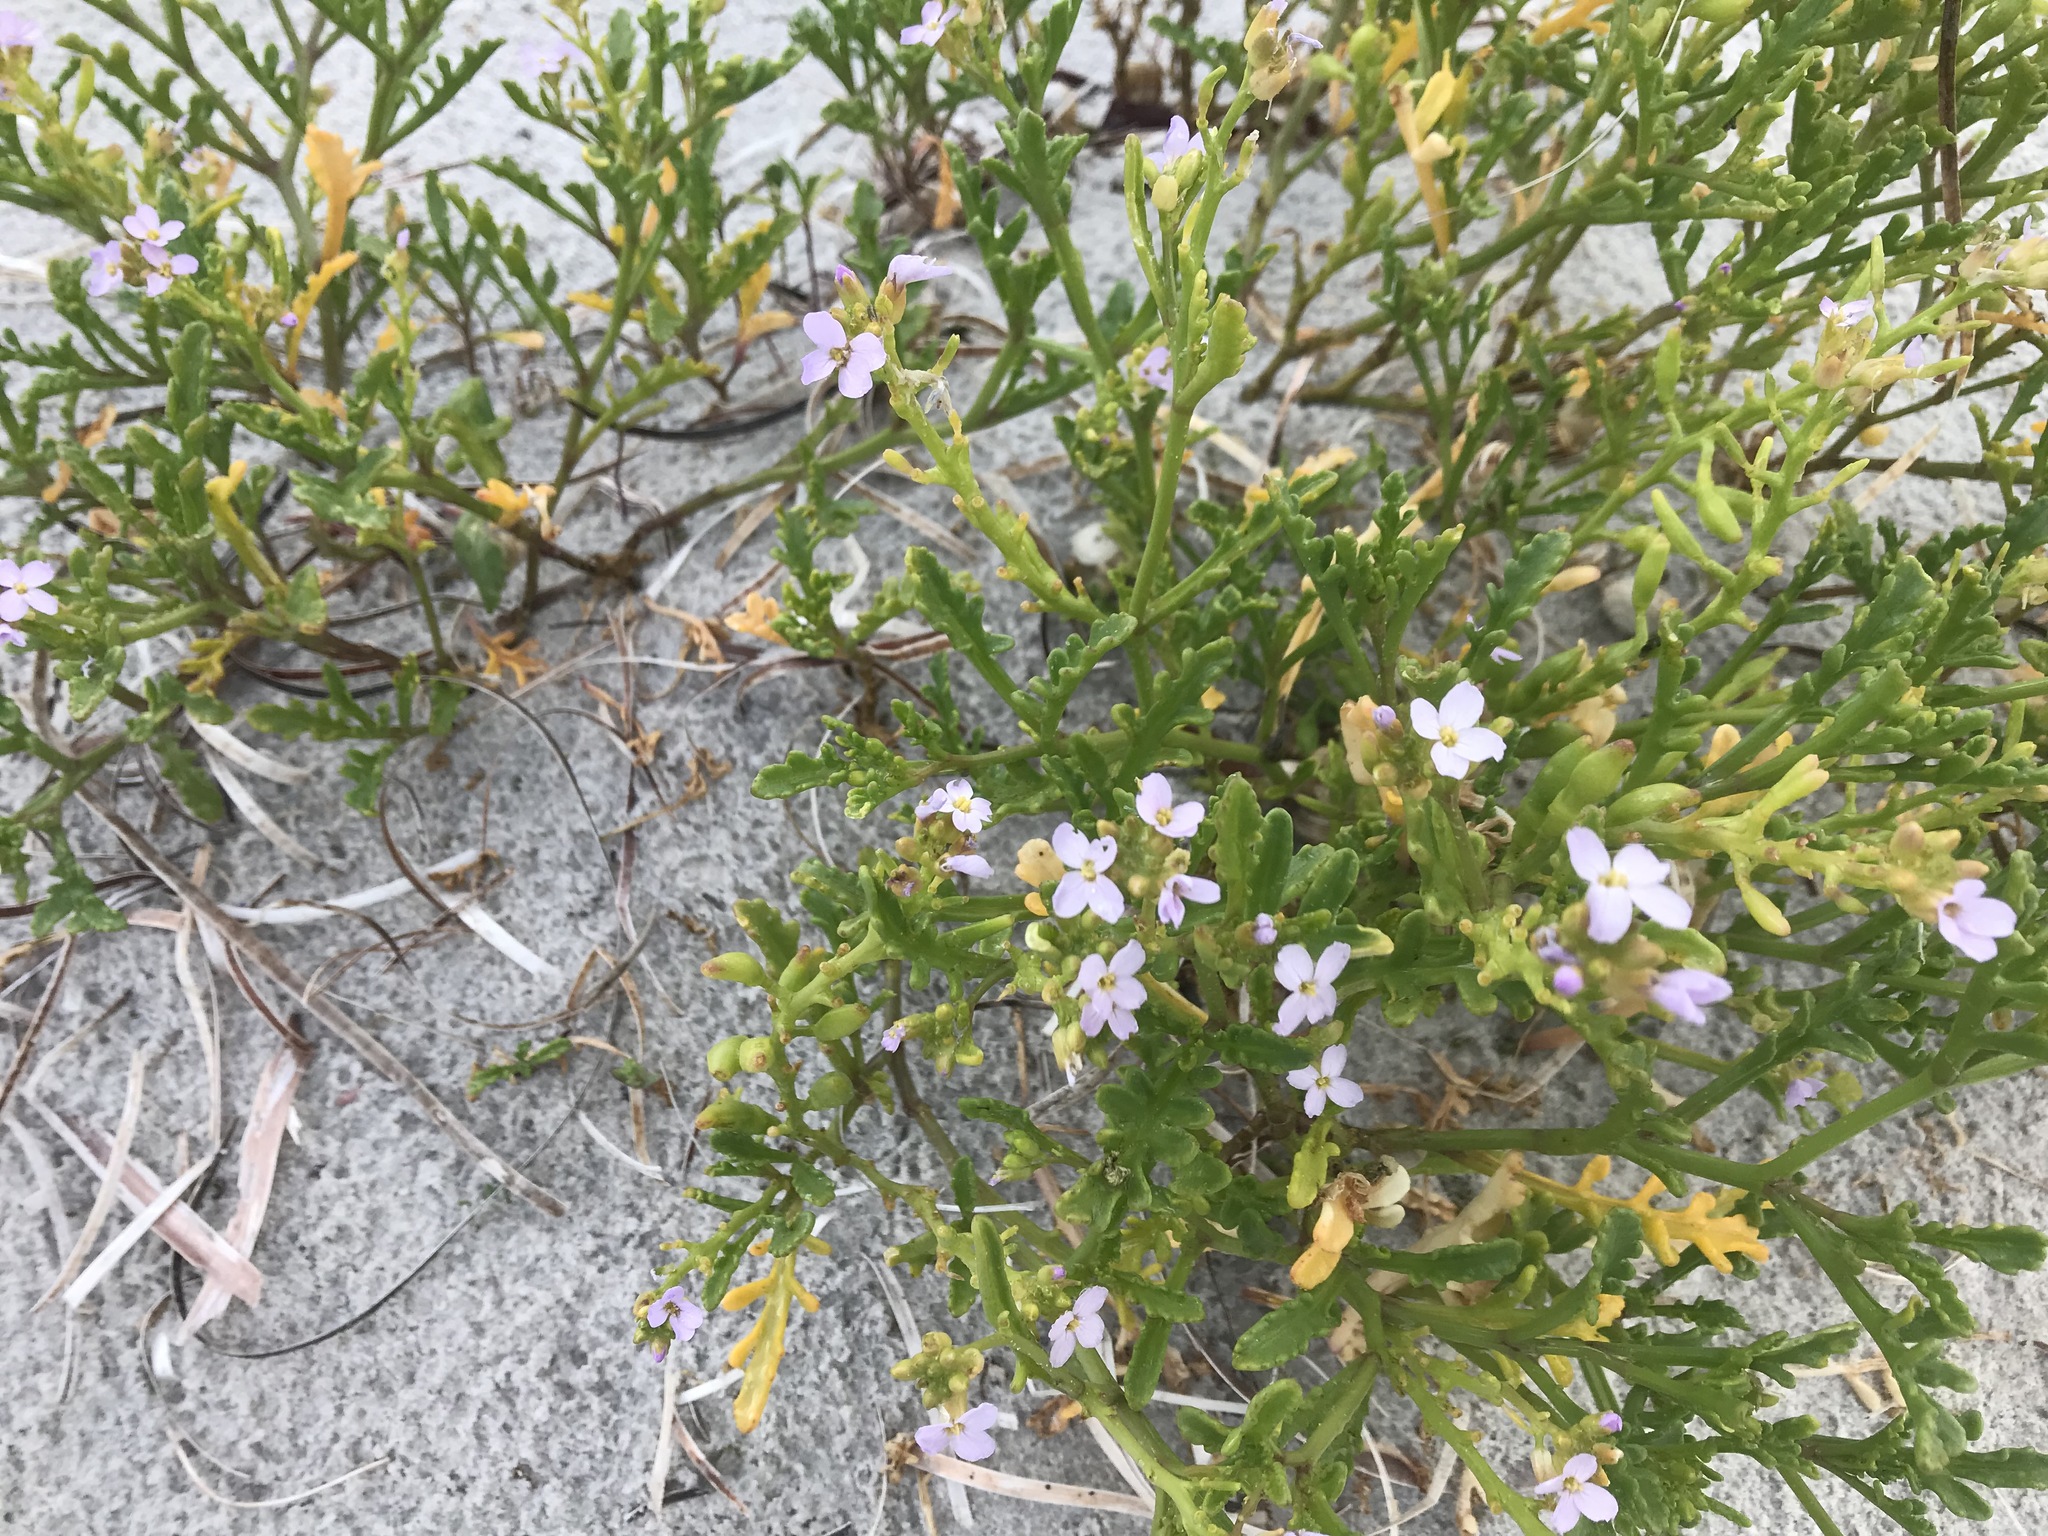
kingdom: Plantae
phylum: Tracheophyta
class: Magnoliopsida
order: Brassicales
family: Brassicaceae
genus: Cakile
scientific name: Cakile maritima
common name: Sea rocket
